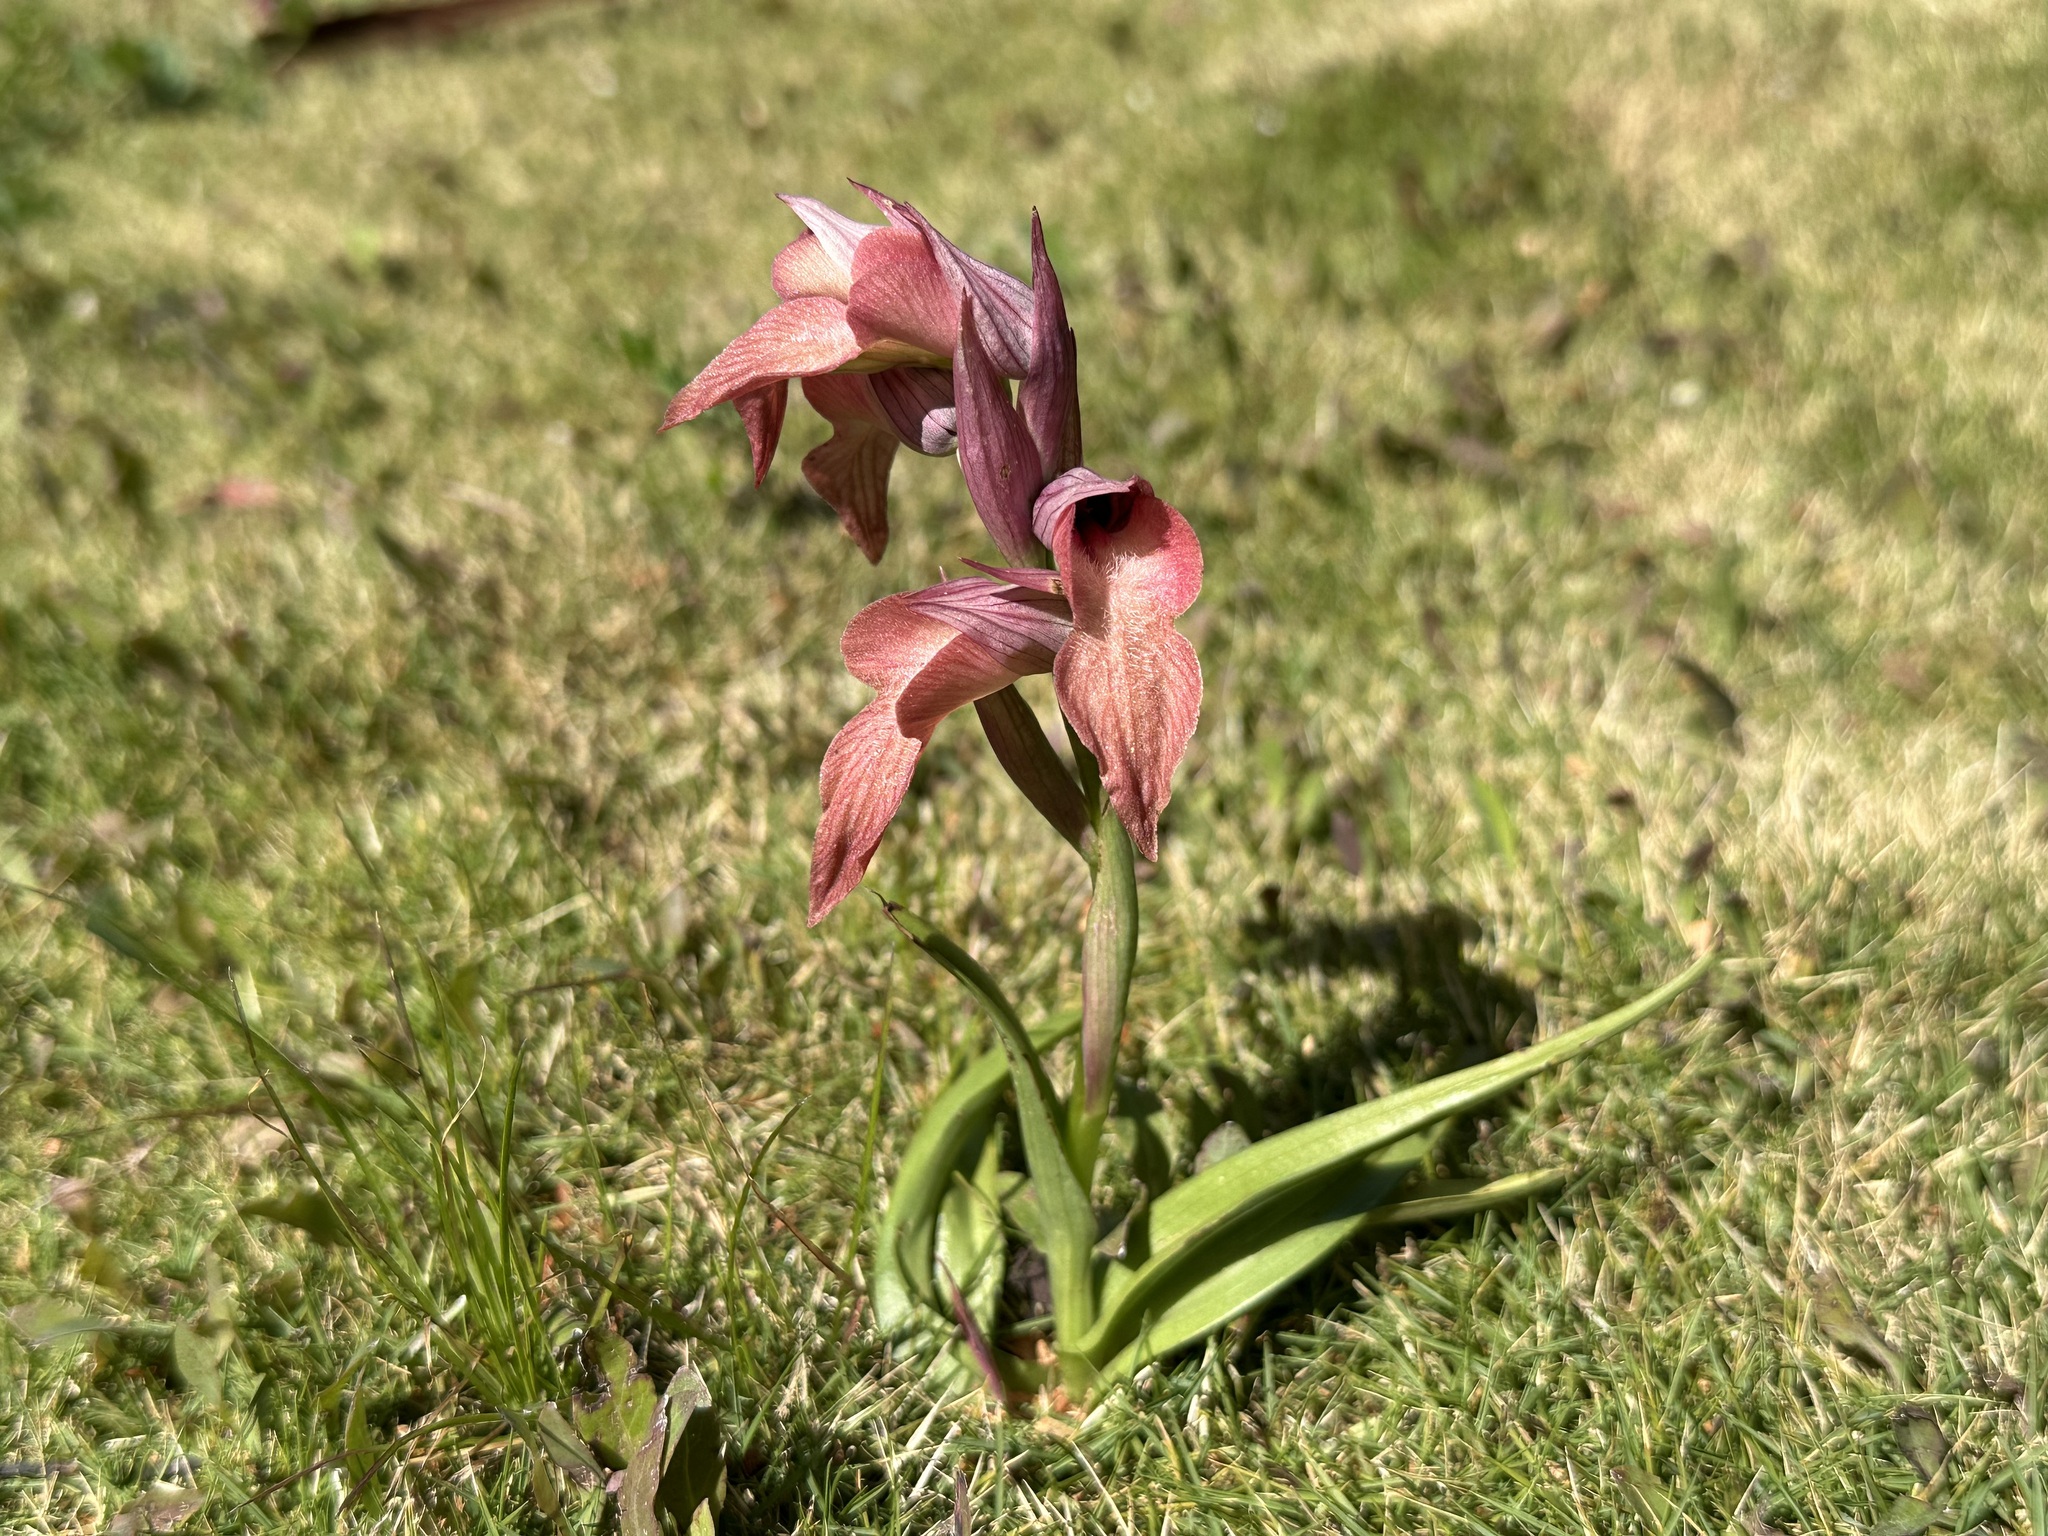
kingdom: Plantae
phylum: Tracheophyta
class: Liliopsida
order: Asparagales
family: Orchidaceae
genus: Serapias
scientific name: Serapias neglecta
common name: Neglected serapias
